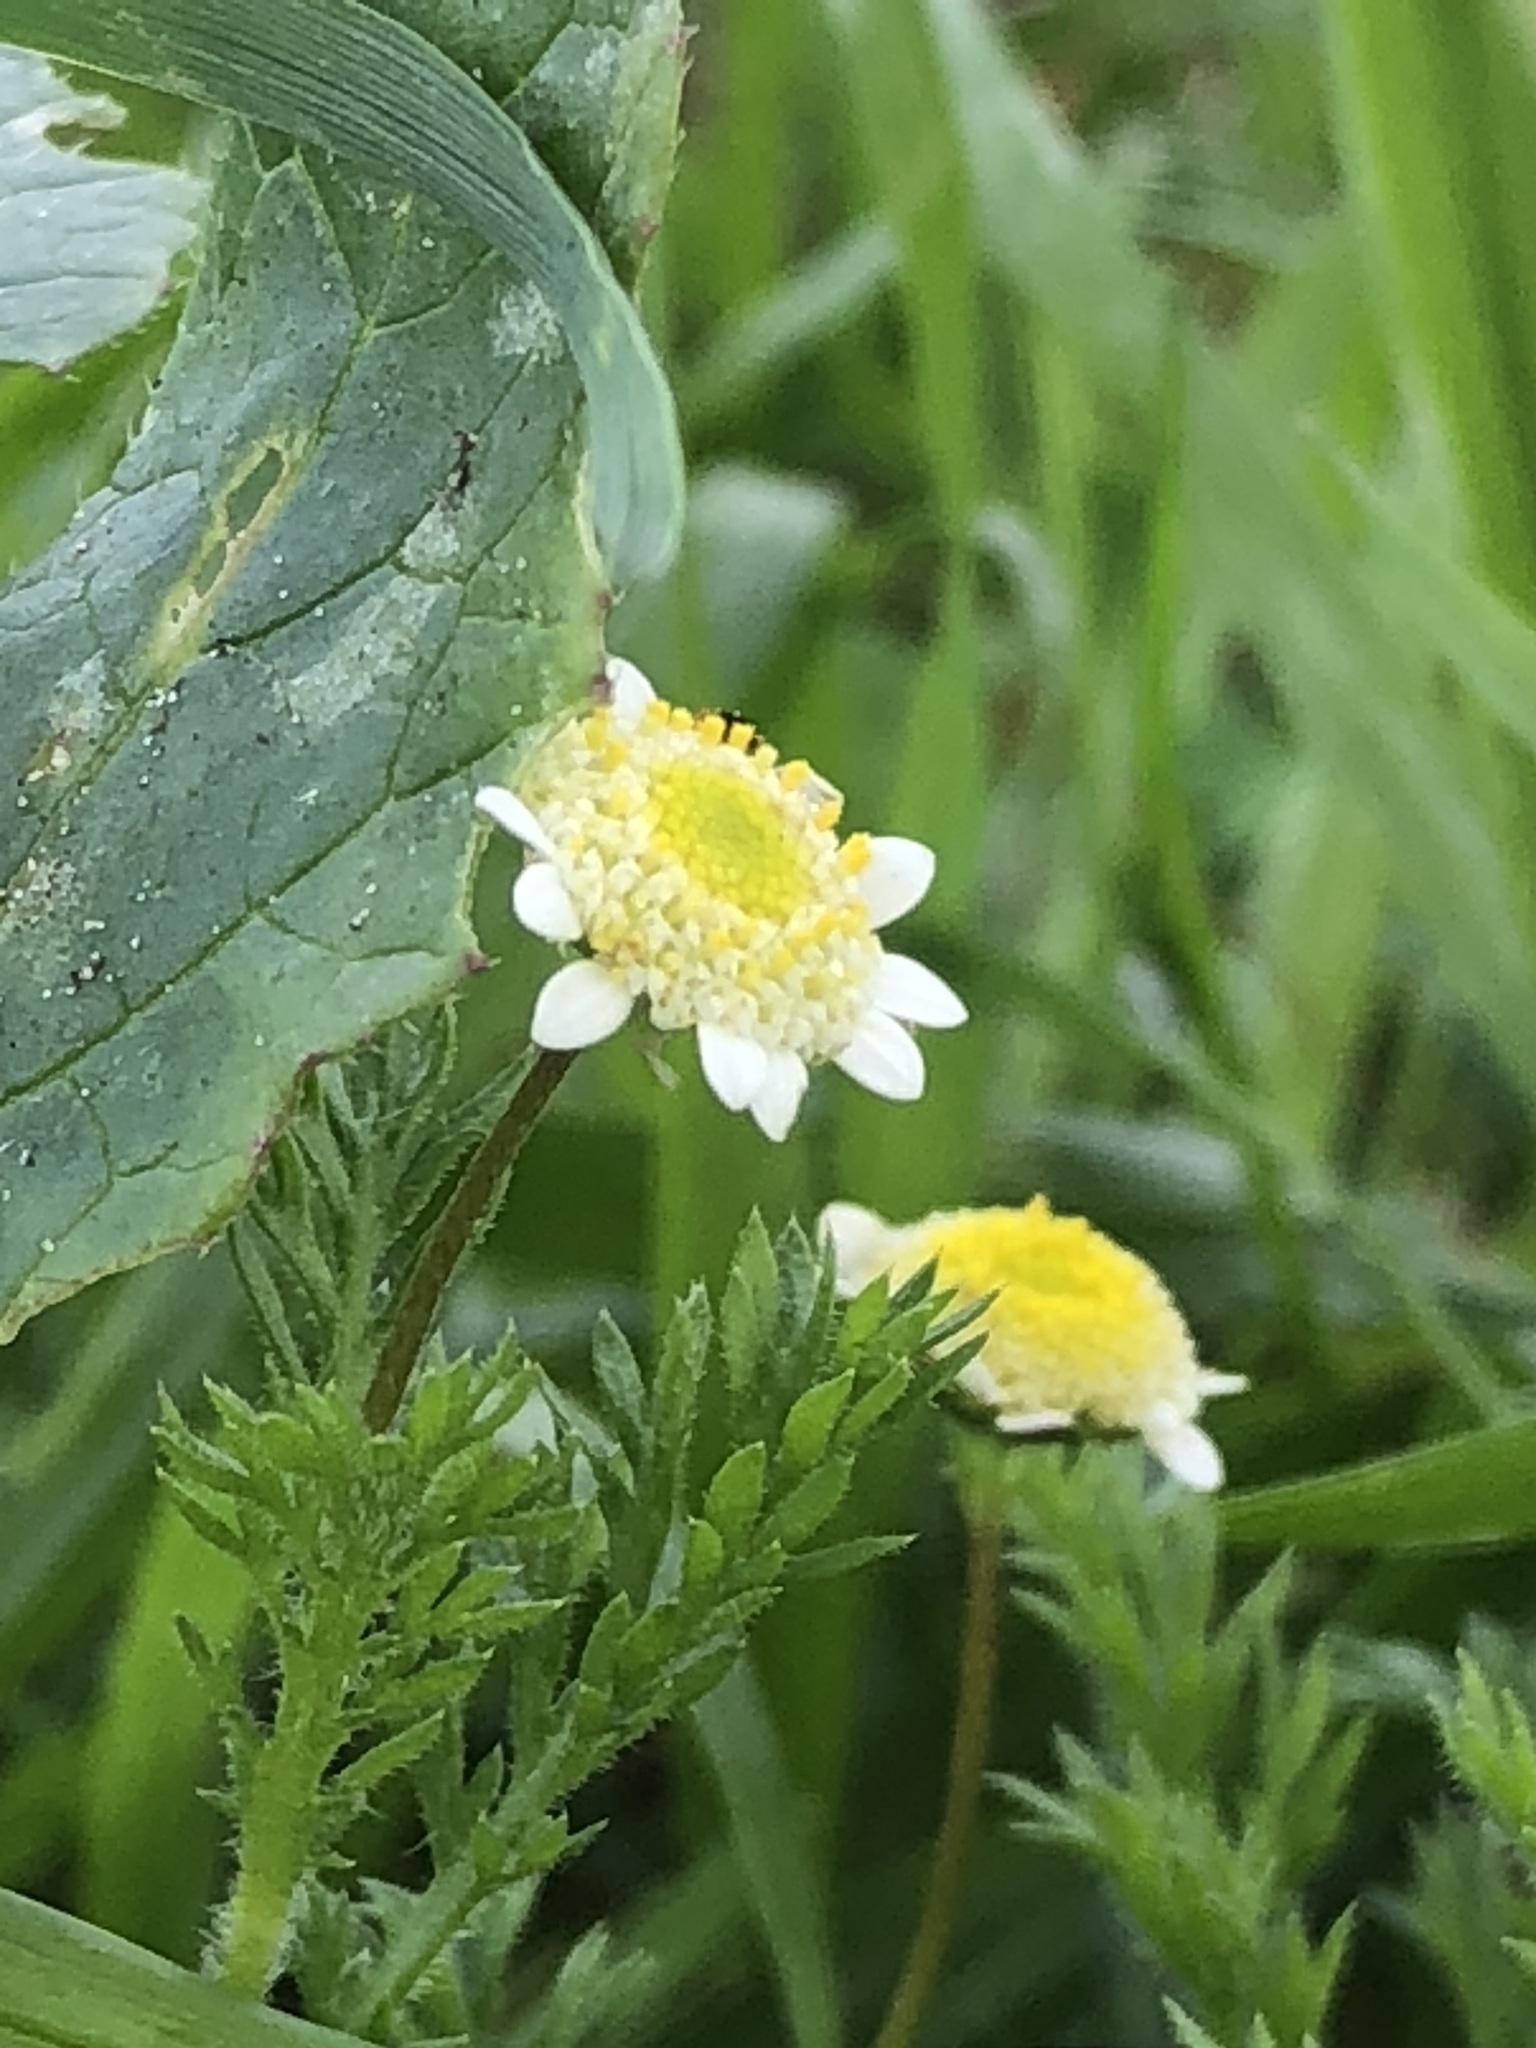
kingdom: Plantae
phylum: Tracheophyta
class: Magnoliopsida
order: Asterales
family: Asteraceae
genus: Cotula
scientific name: Cotula turbinata
